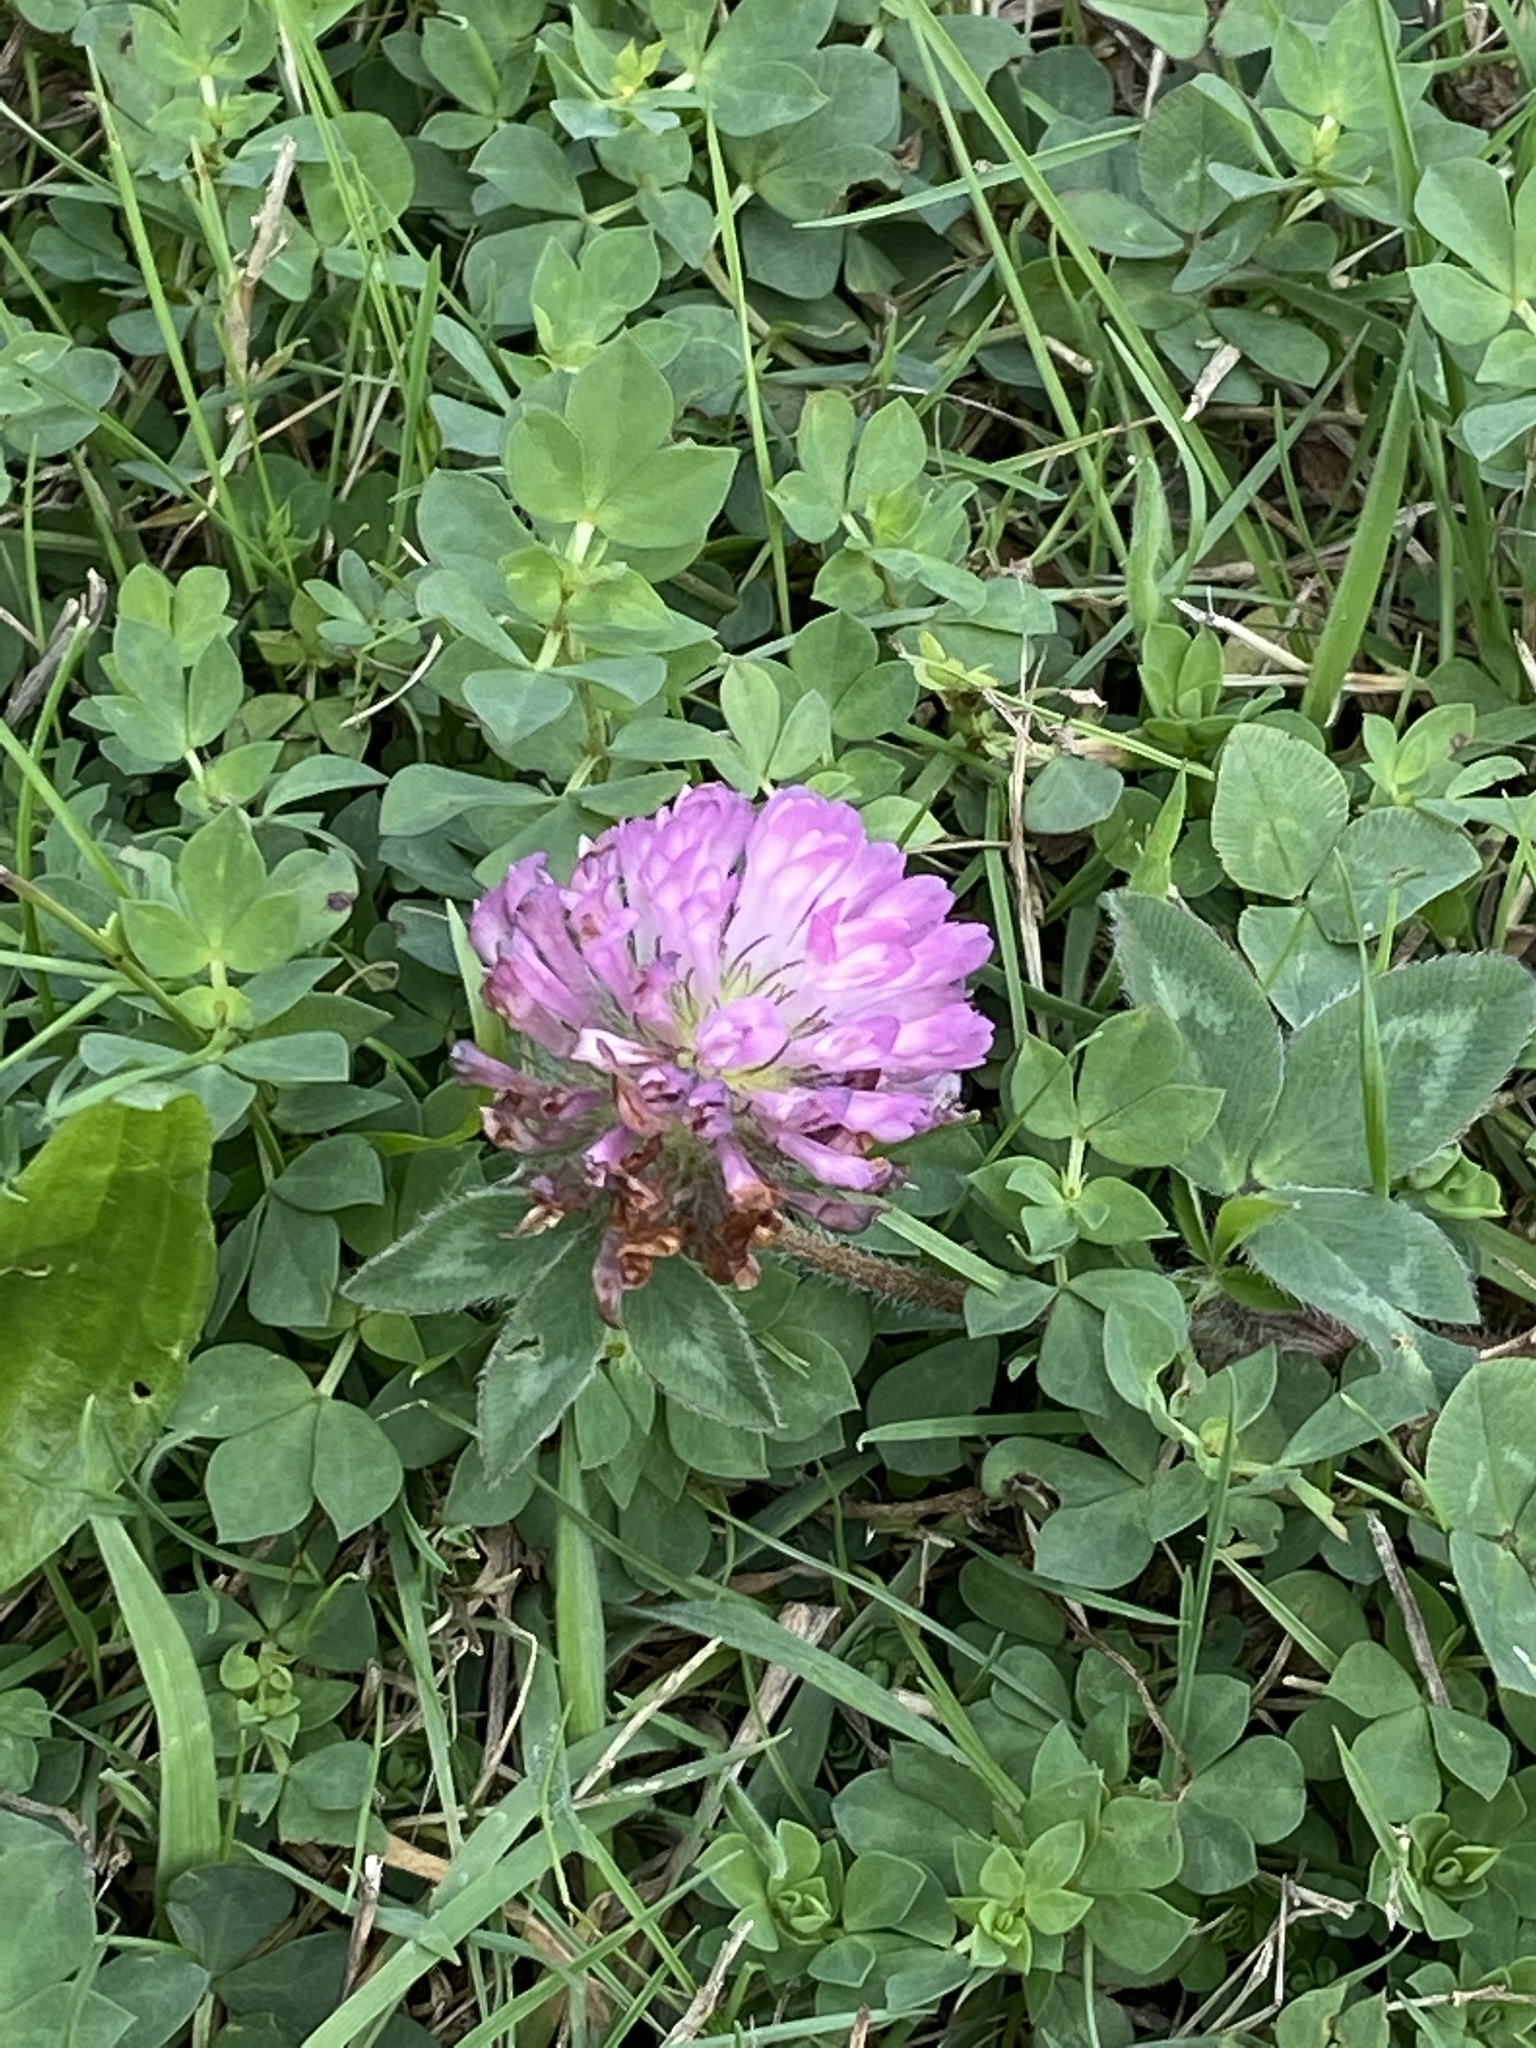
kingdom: Plantae
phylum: Tracheophyta
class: Magnoliopsida
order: Fabales
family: Fabaceae
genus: Trifolium
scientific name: Trifolium pratense
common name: Red clover
